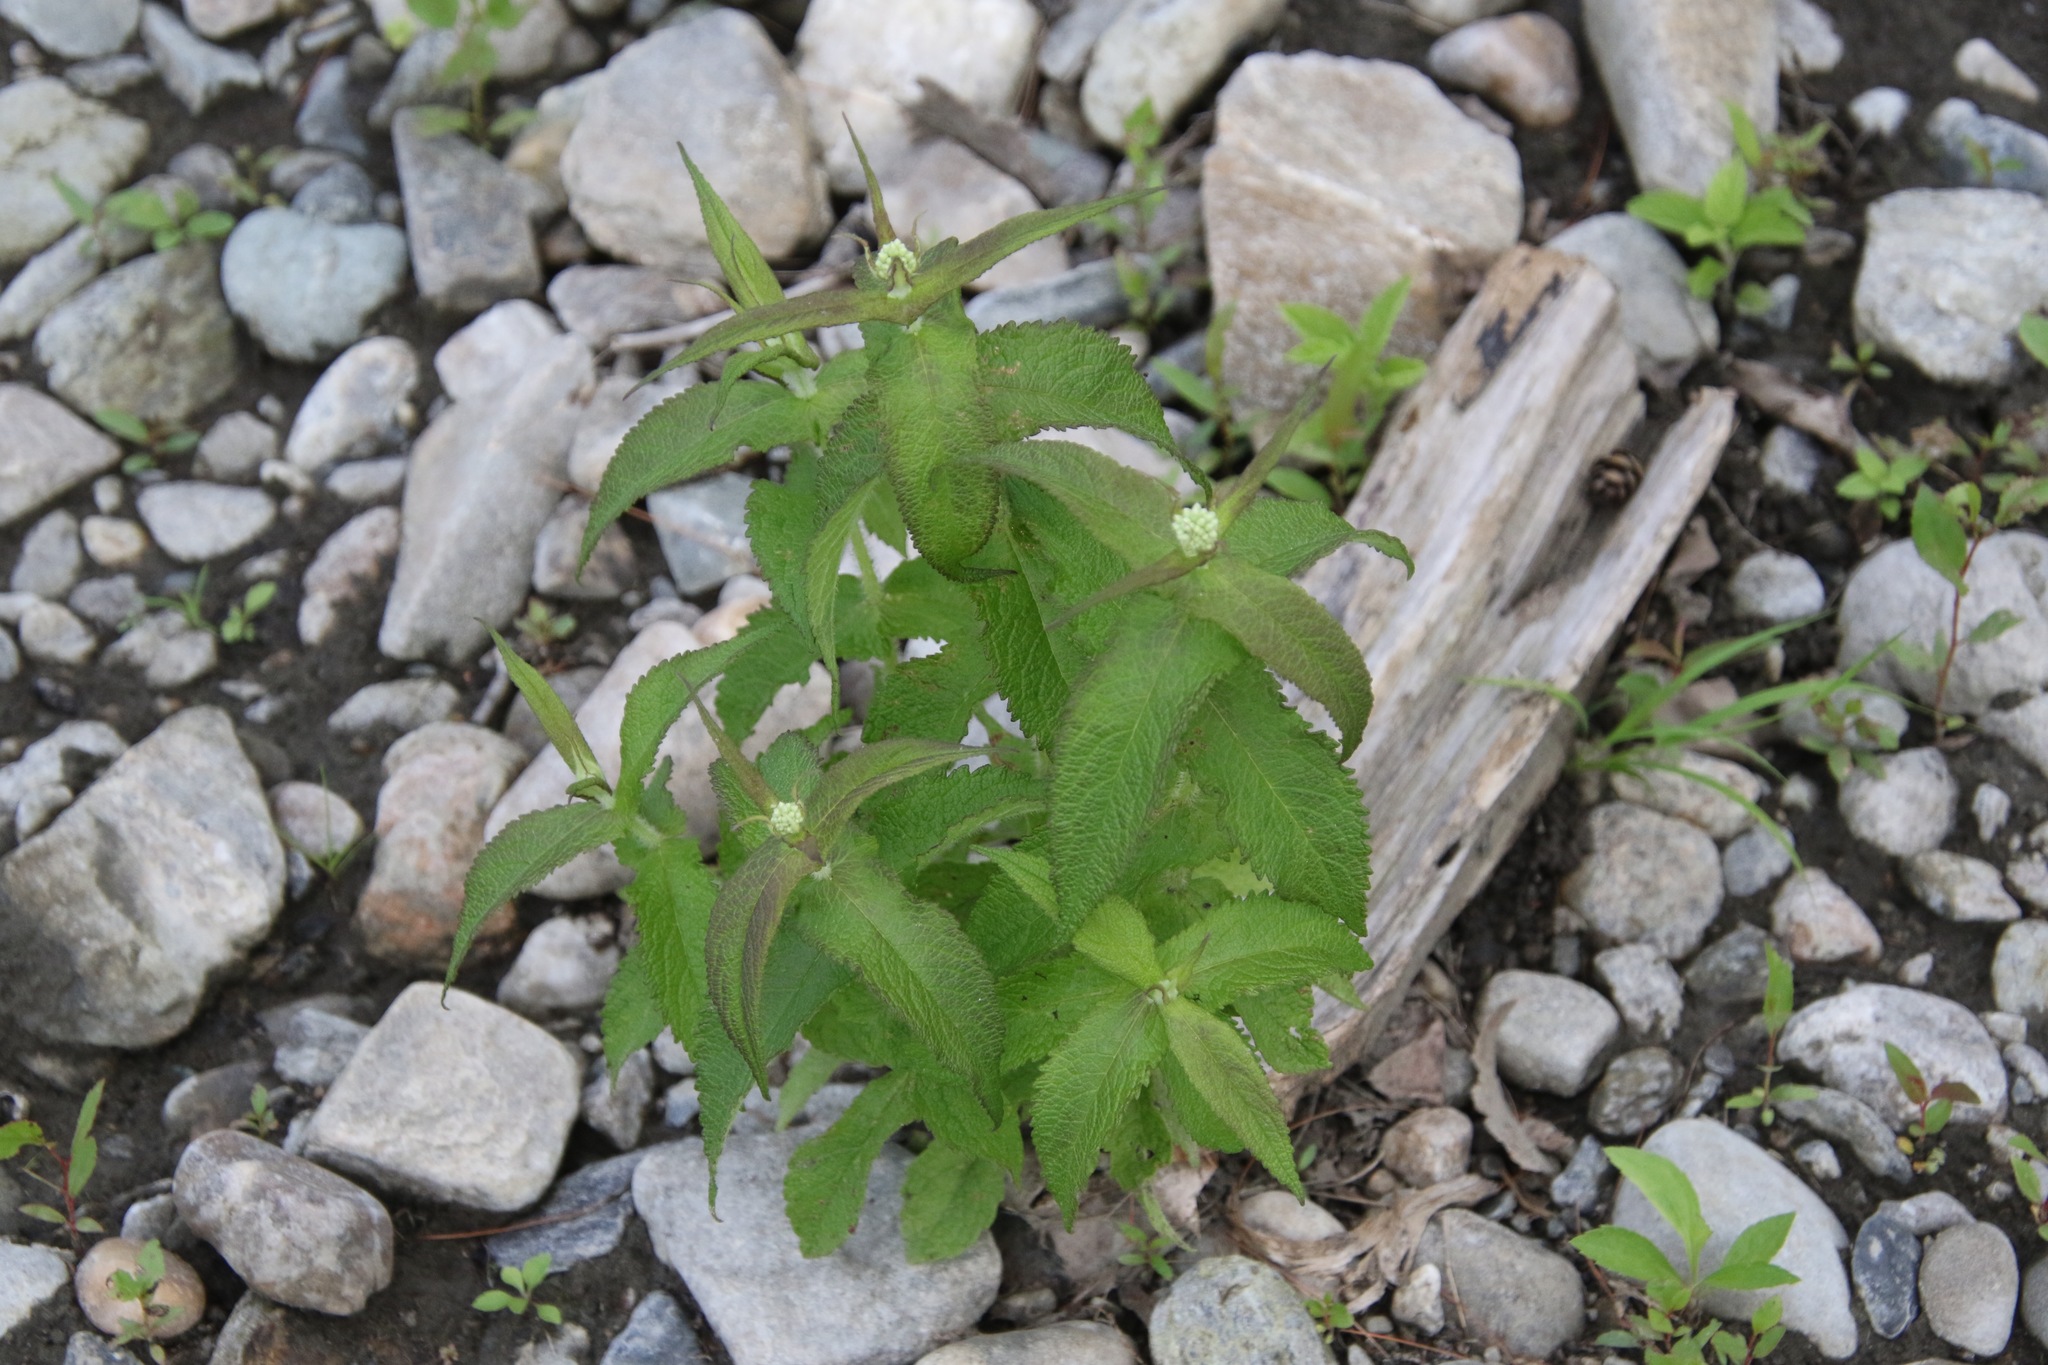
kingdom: Plantae
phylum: Tracheophyta
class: Magnoliopsida
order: Asterales
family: Asteraceae
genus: Eupatorium
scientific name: Eupatorium perfoliatum
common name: Boneset
